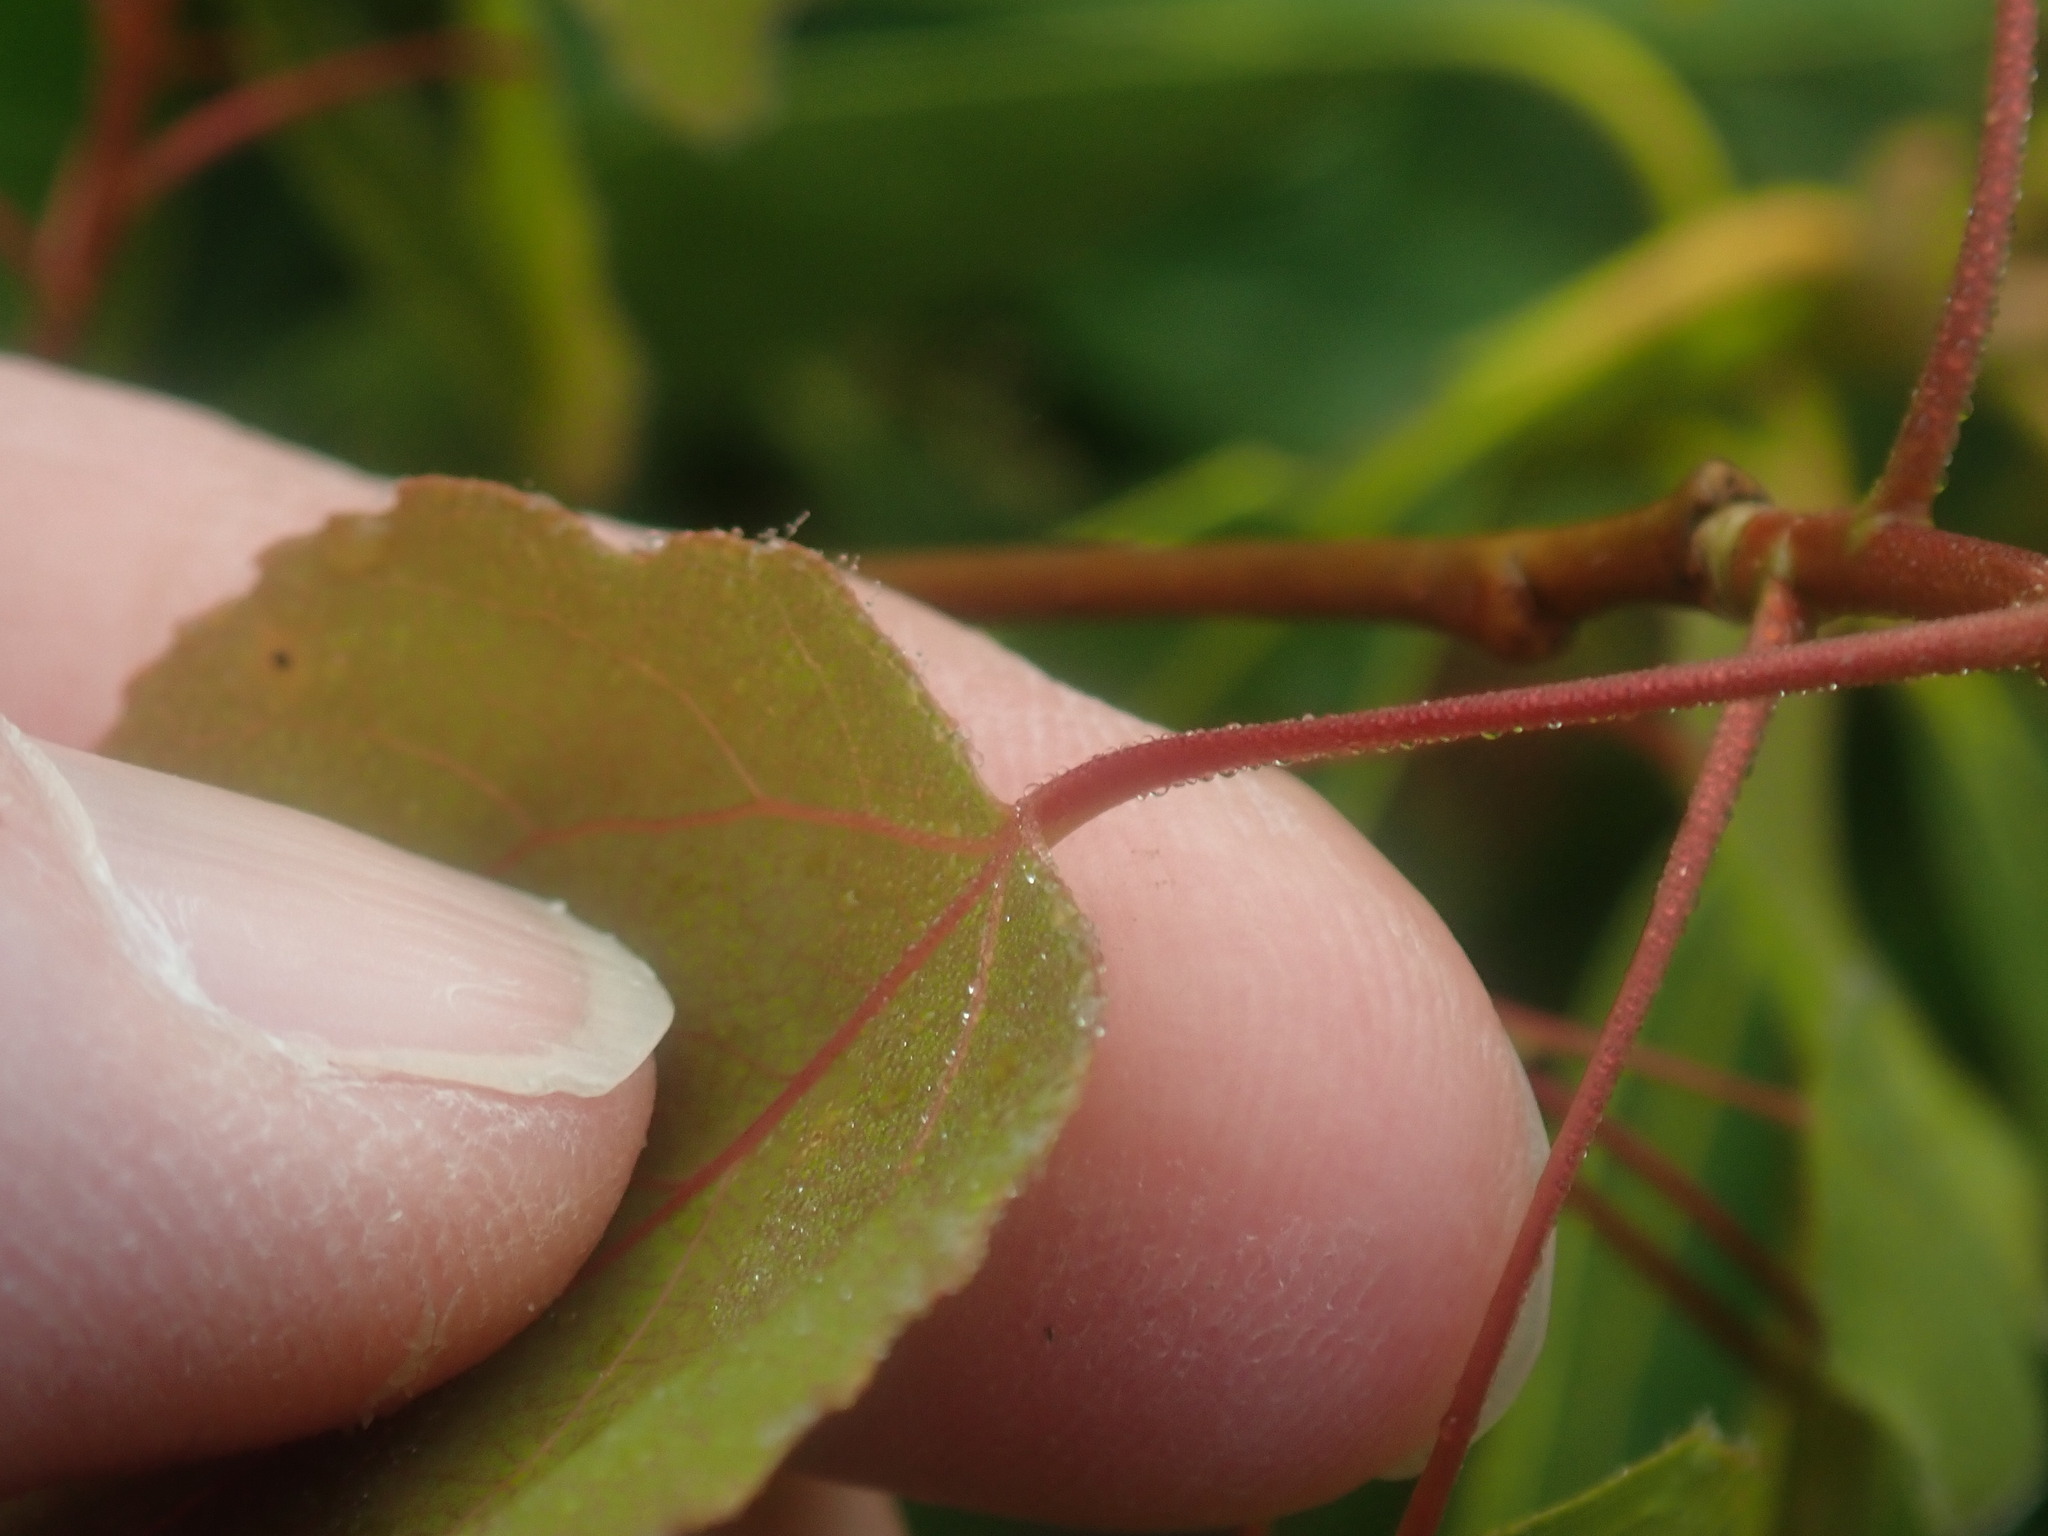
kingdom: Plantae
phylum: Tracheophyta
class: Magnoliopsida
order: Malpighiales
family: Salicaceae
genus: Populus
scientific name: Populus tremuloides
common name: Quaking aspen
